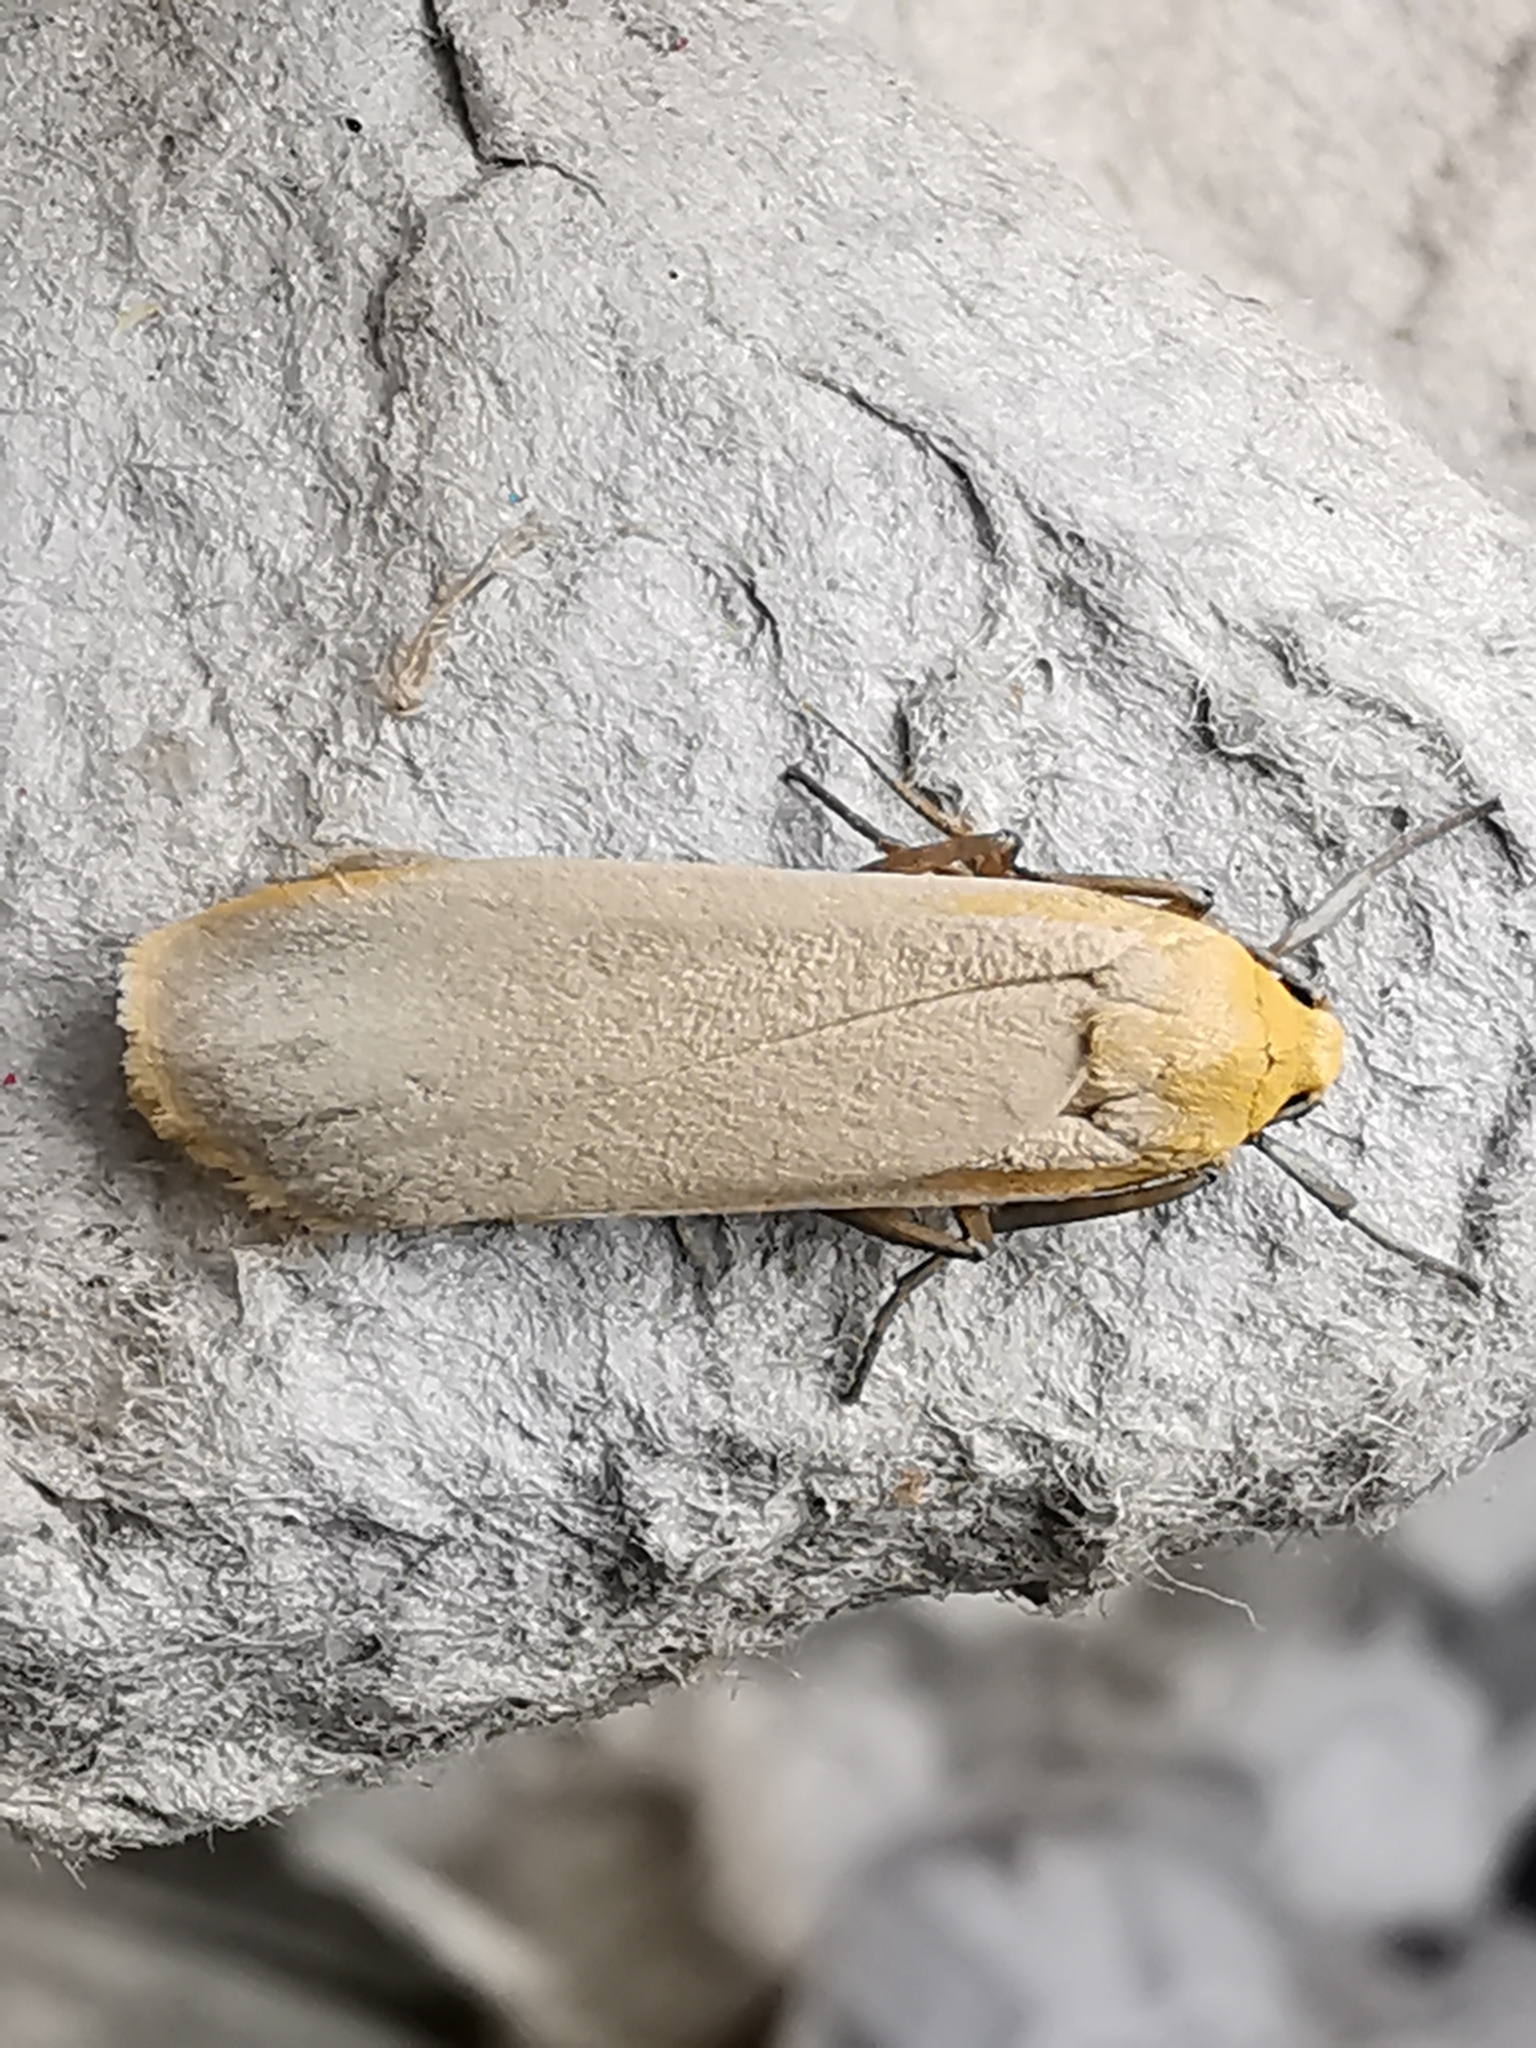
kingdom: Animalia
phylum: Arthropoda
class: Insecta
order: Lepidoptera
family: Erebidae
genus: Katha
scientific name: Katha depressa
